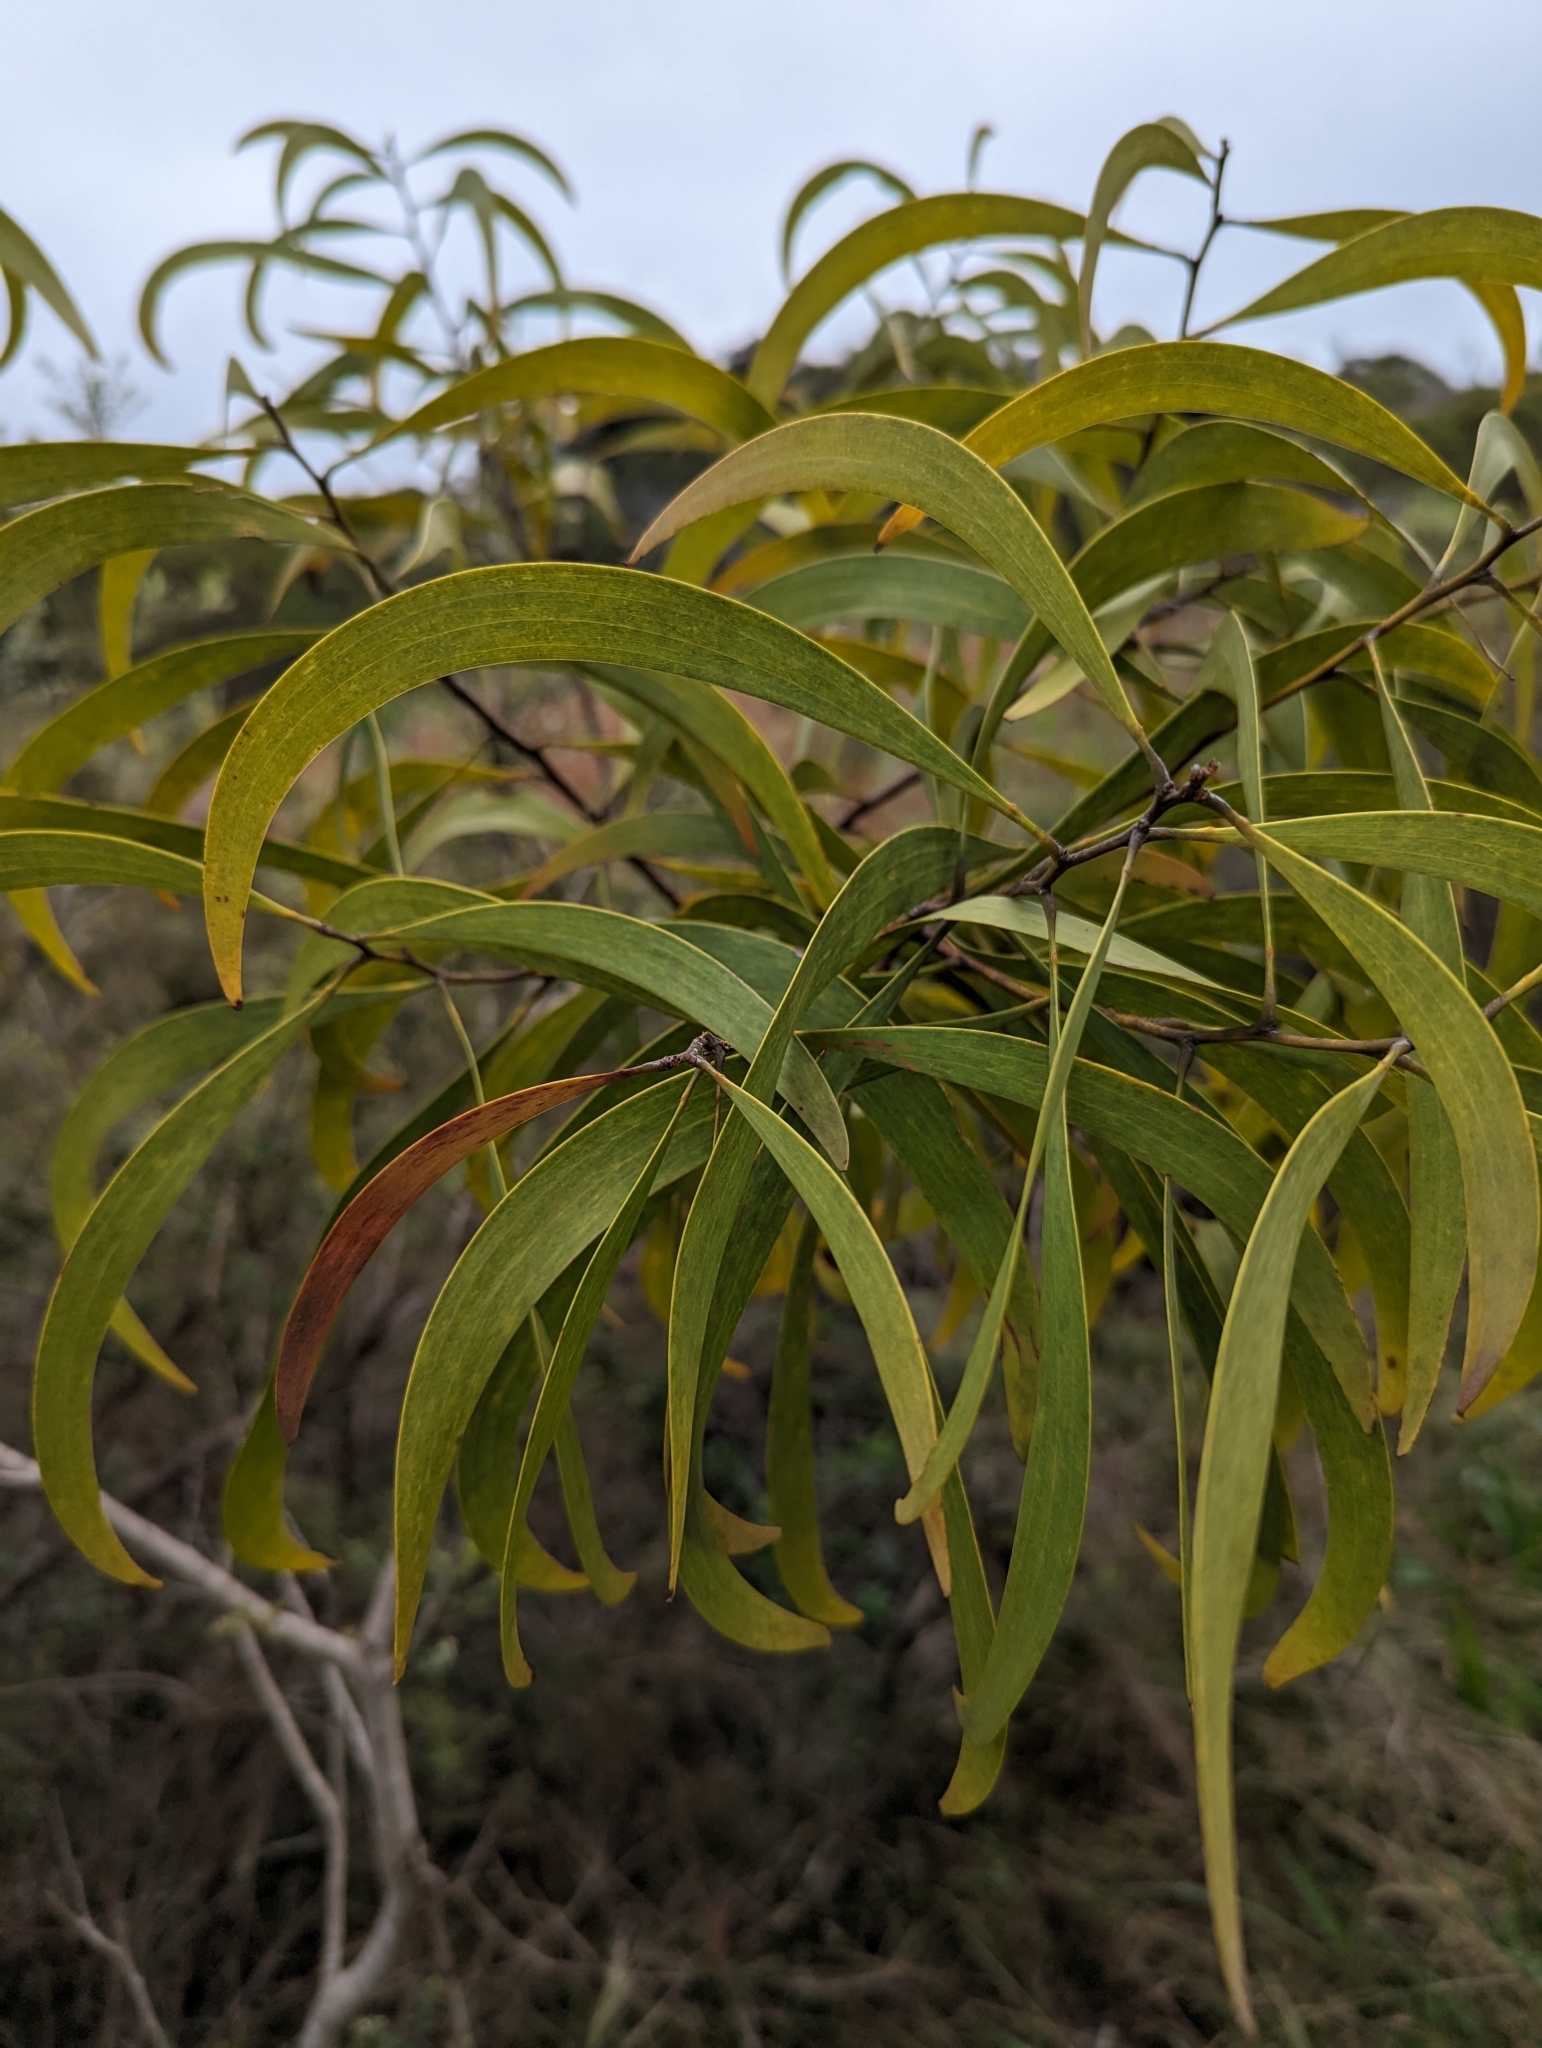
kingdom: Plantae
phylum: Tracheophyta
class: Magnoliopsida
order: Fabales
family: Fabaceae
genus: Acacia
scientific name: Acacia koa
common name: Gray koa
